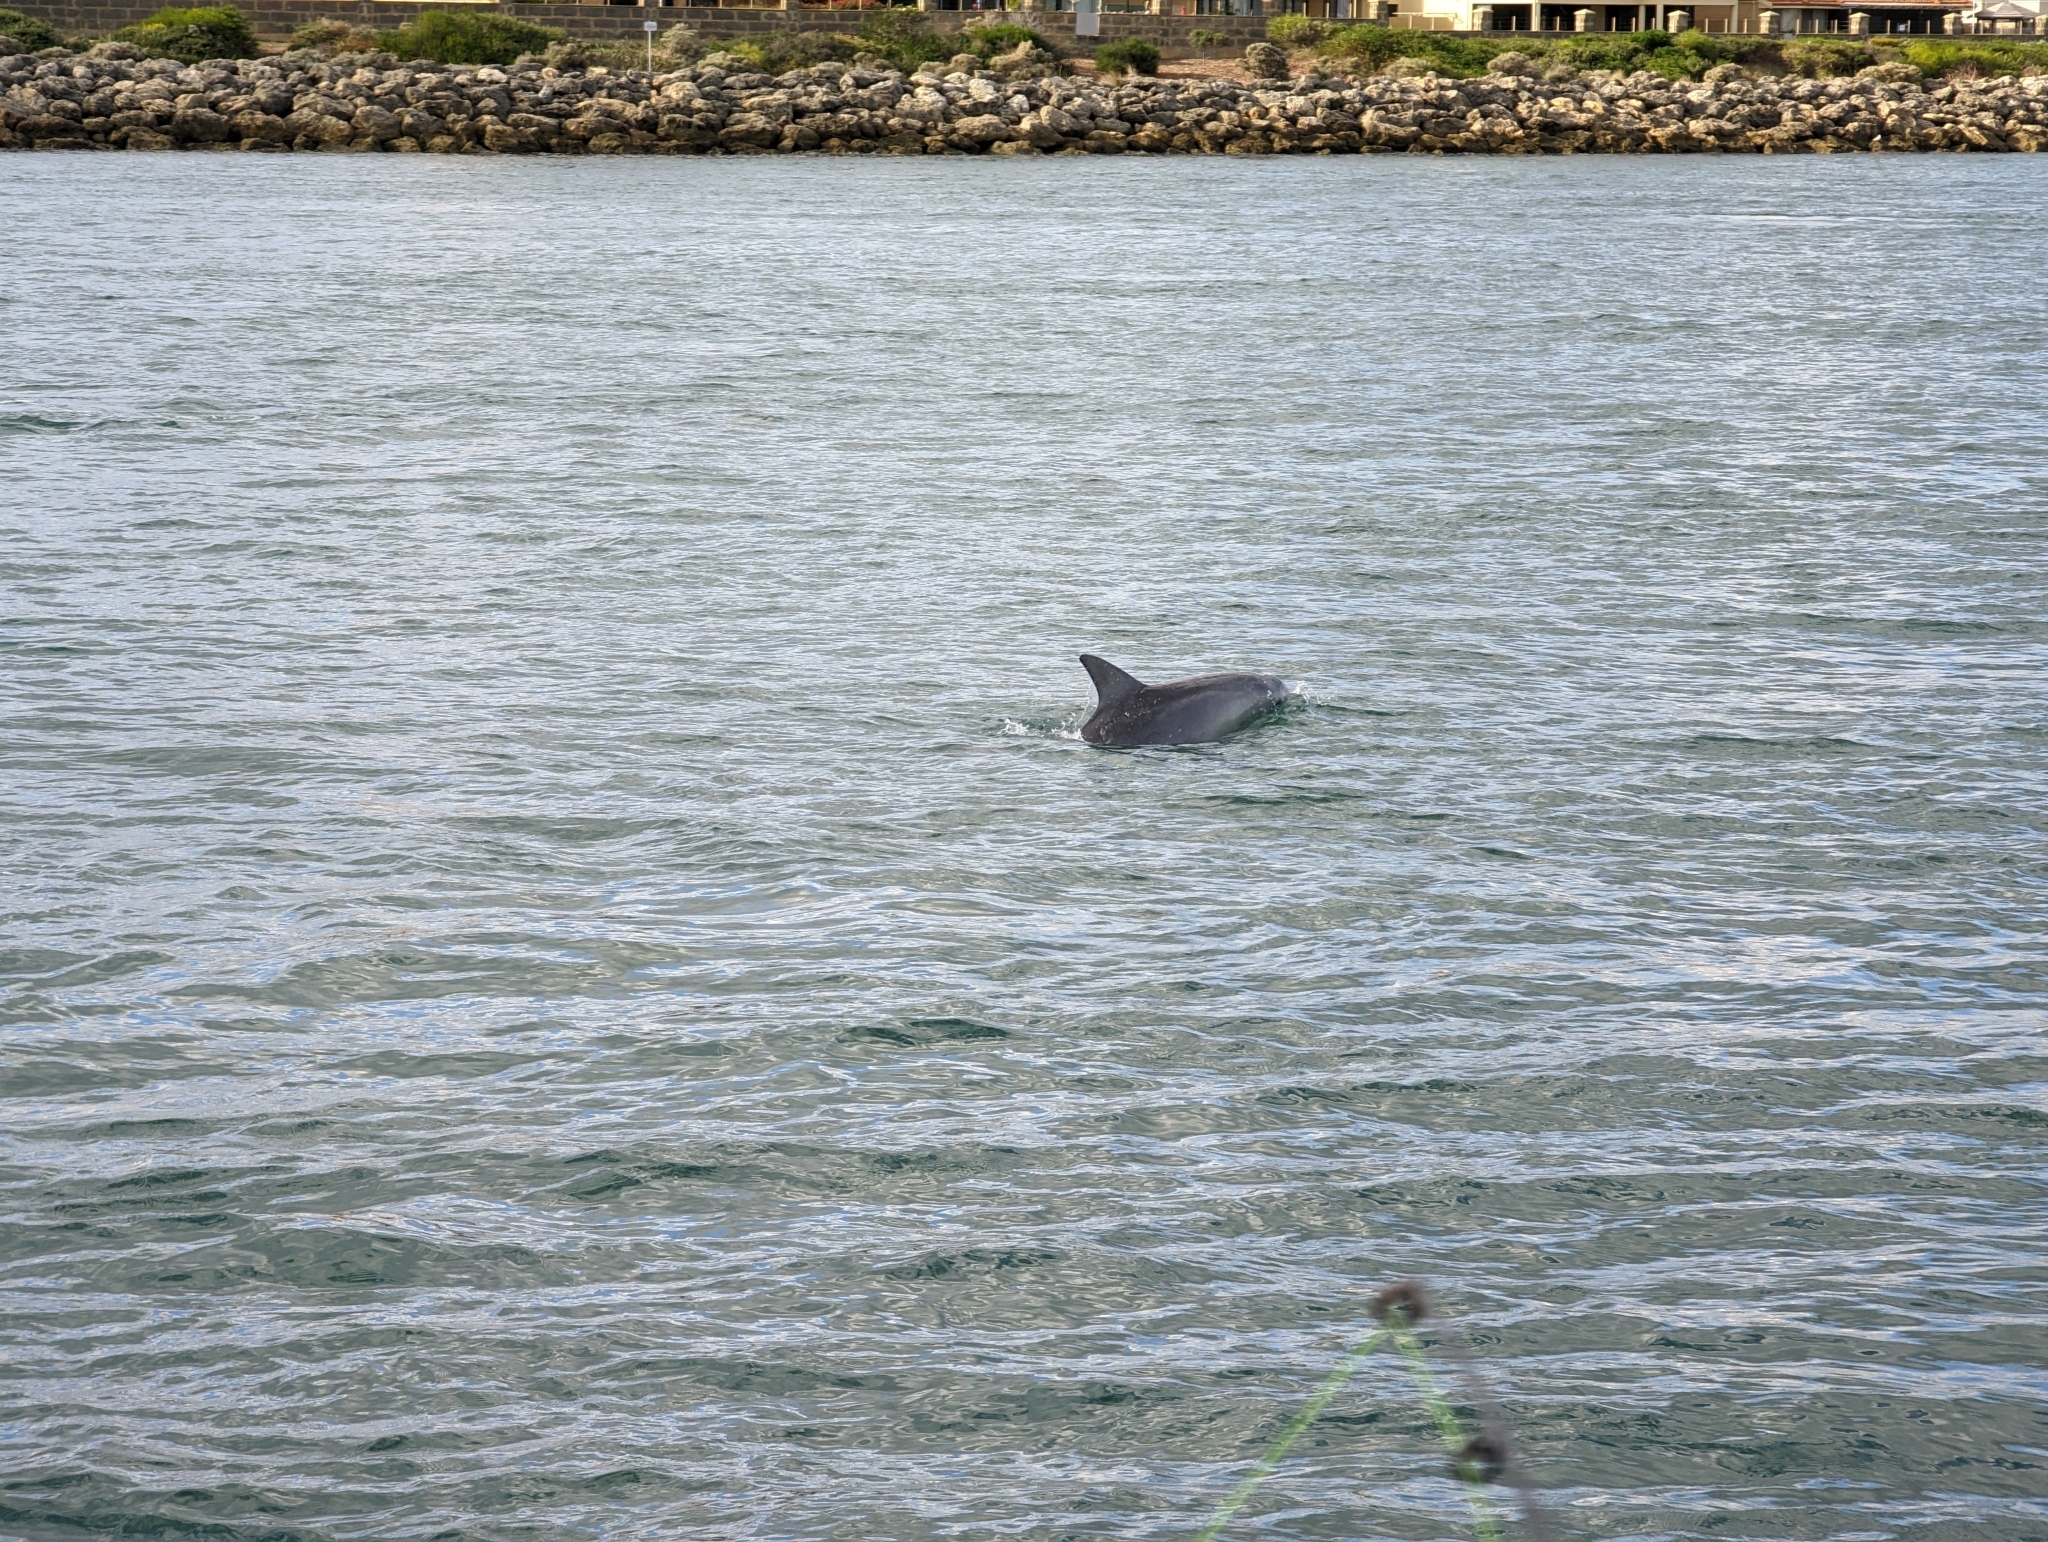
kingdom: Animalia
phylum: Chordata
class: Mammalia
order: Cetacea
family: Delphinidae
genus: Tursiops
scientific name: Tursiops aduncus
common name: Indo-pacific bottlenose dolphin
